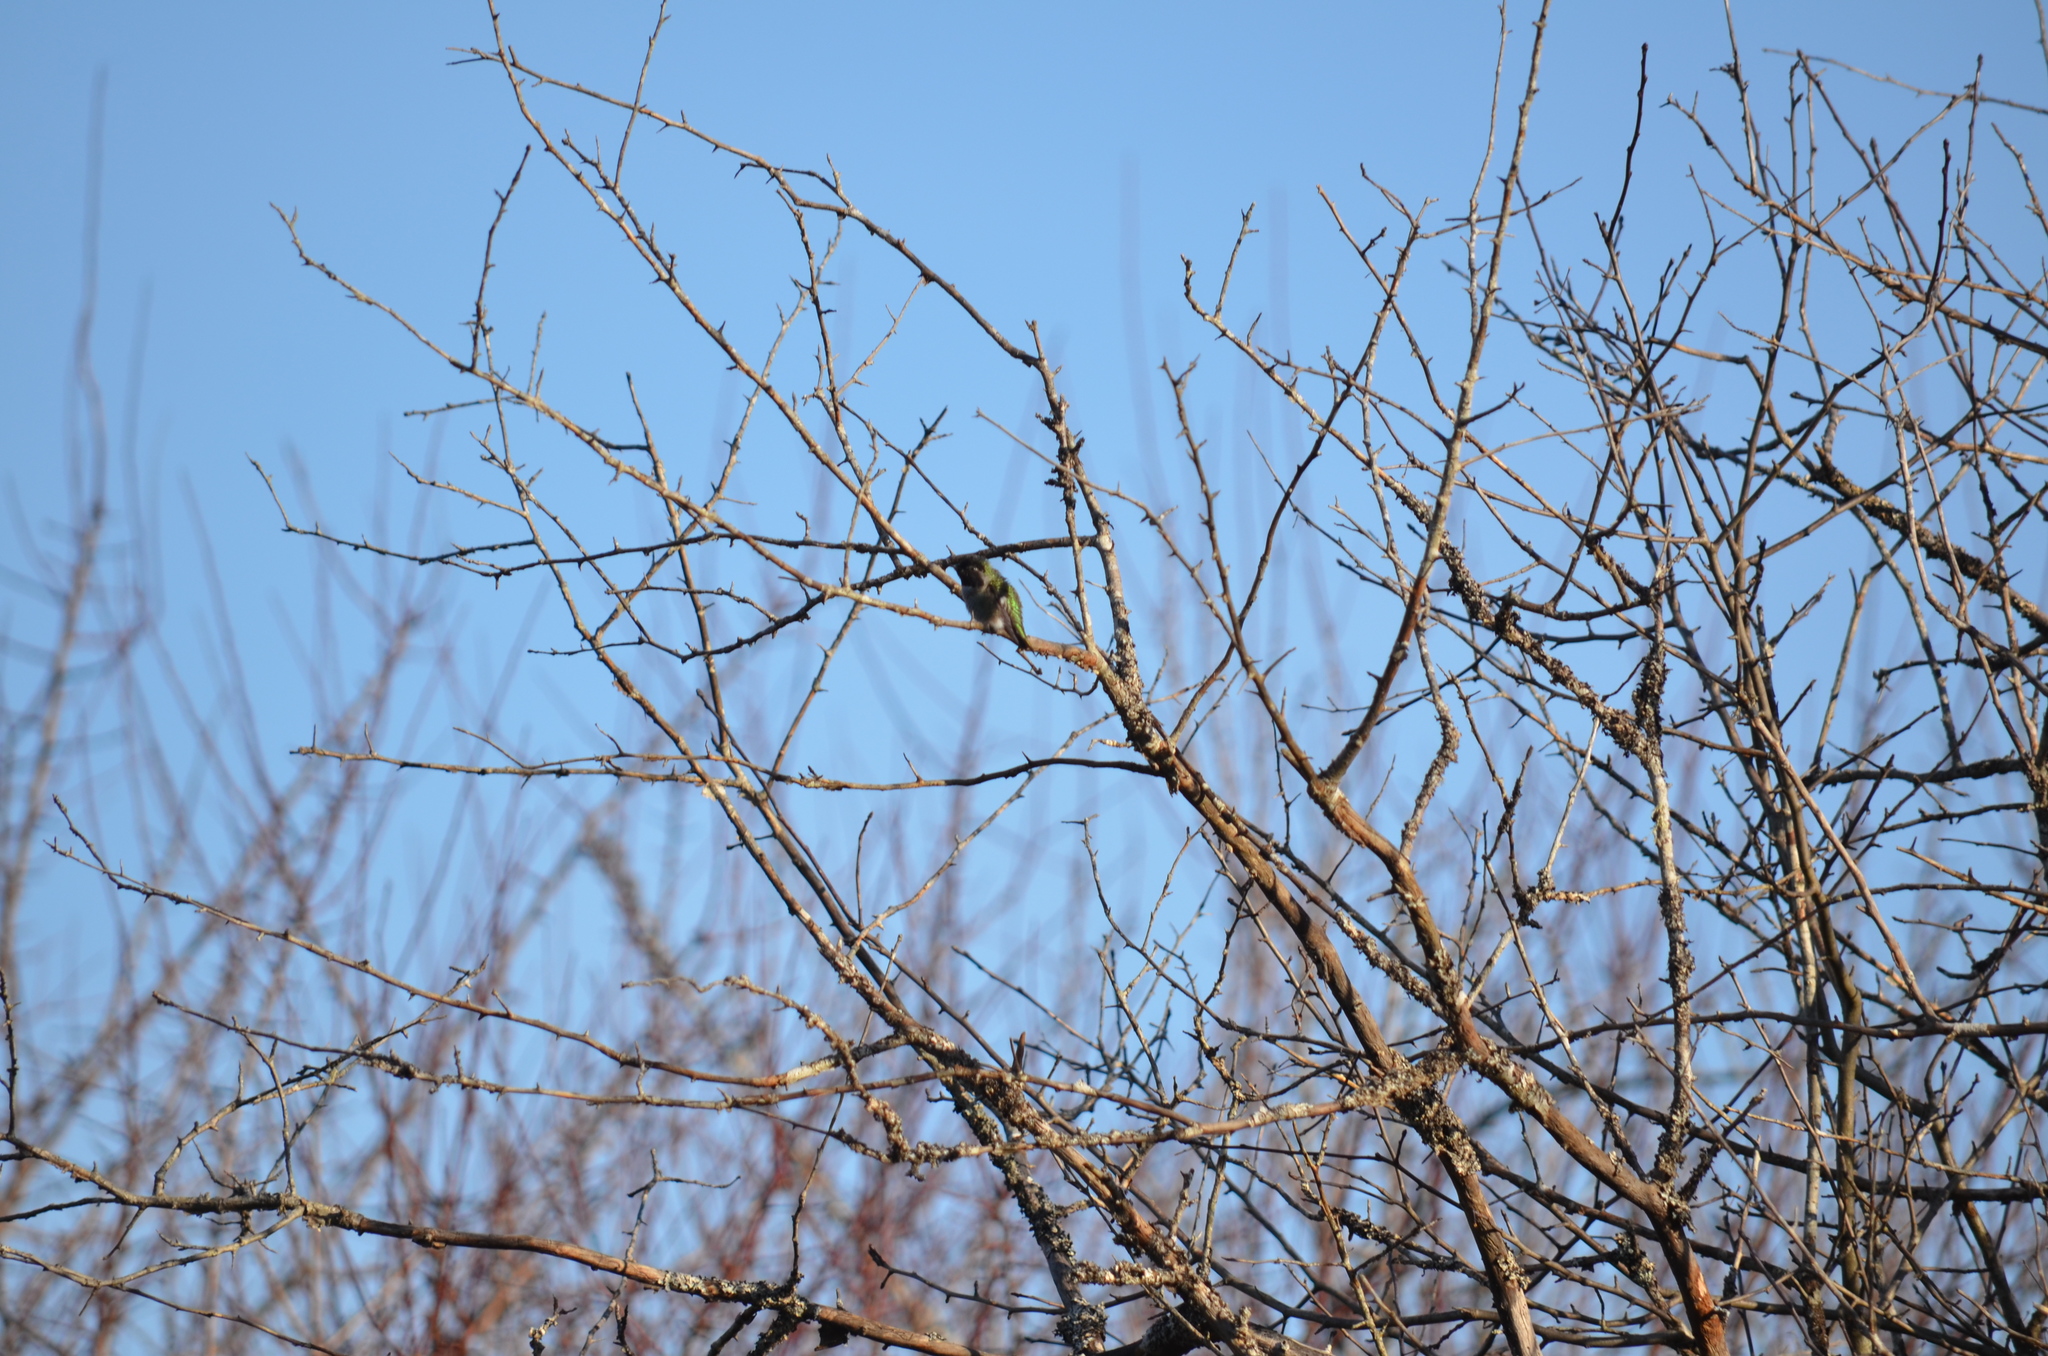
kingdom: Animalia
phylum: Chordata
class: Aves
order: Apodiformes
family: Trochilidae
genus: Calypte
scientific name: Calypte anna
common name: Anna's hummingbird
